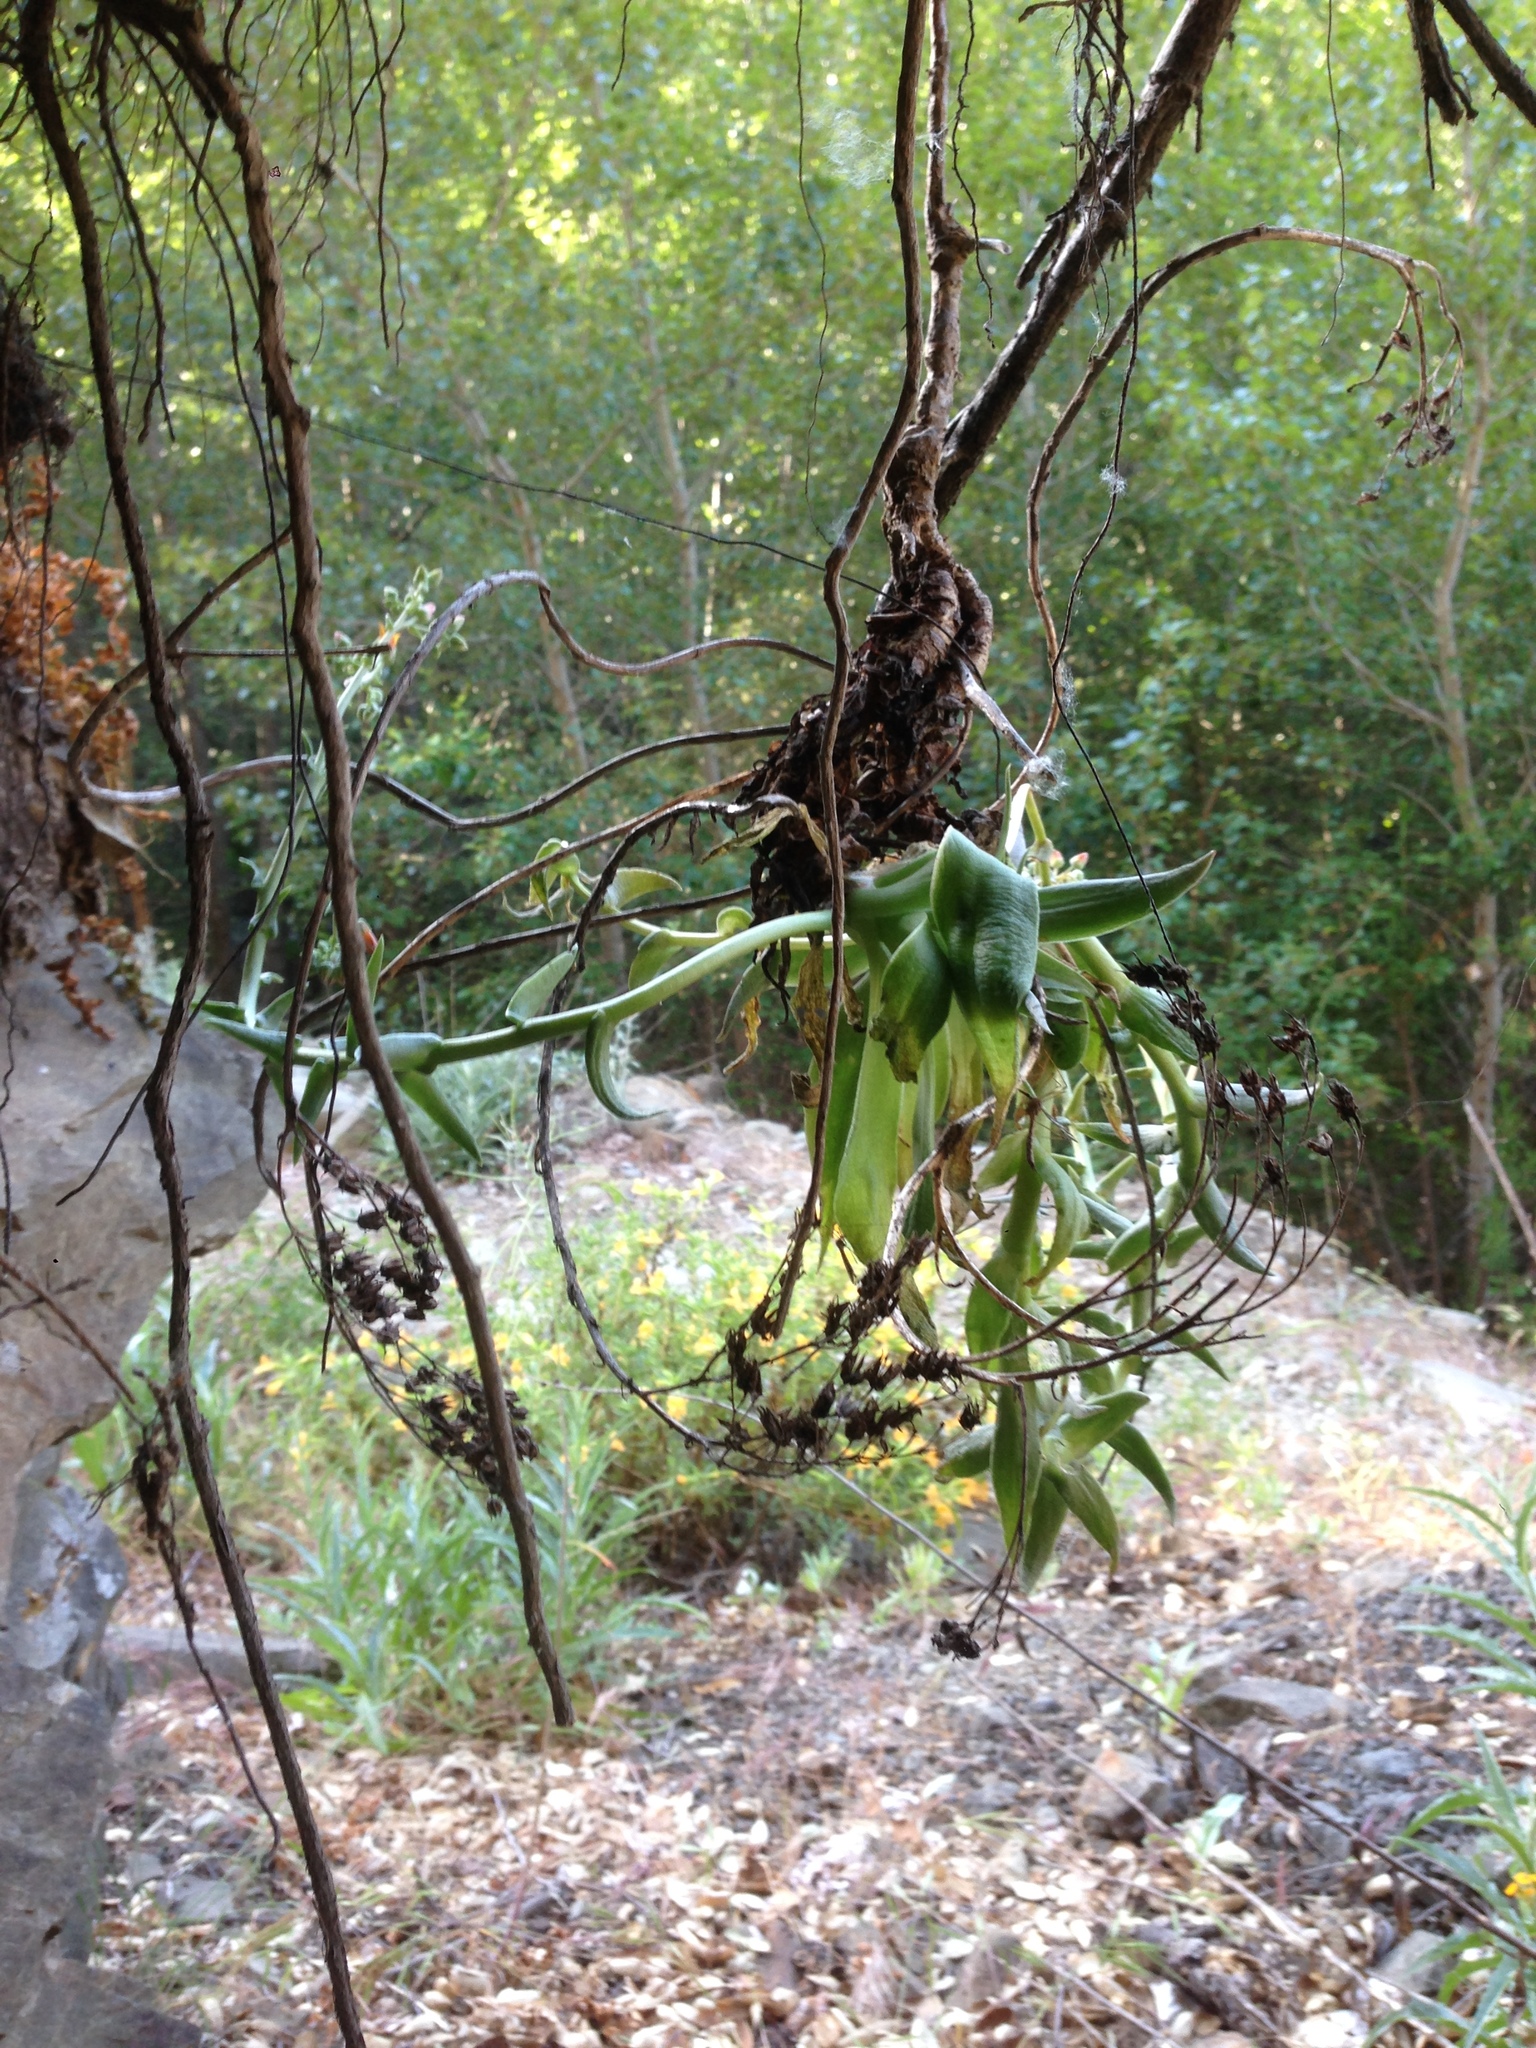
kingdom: Plantae
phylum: Tracheophyta
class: Magnoliopsida
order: Saxifragales
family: Crassulaceae
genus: Dudleya
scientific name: Dudleya lanceolata
